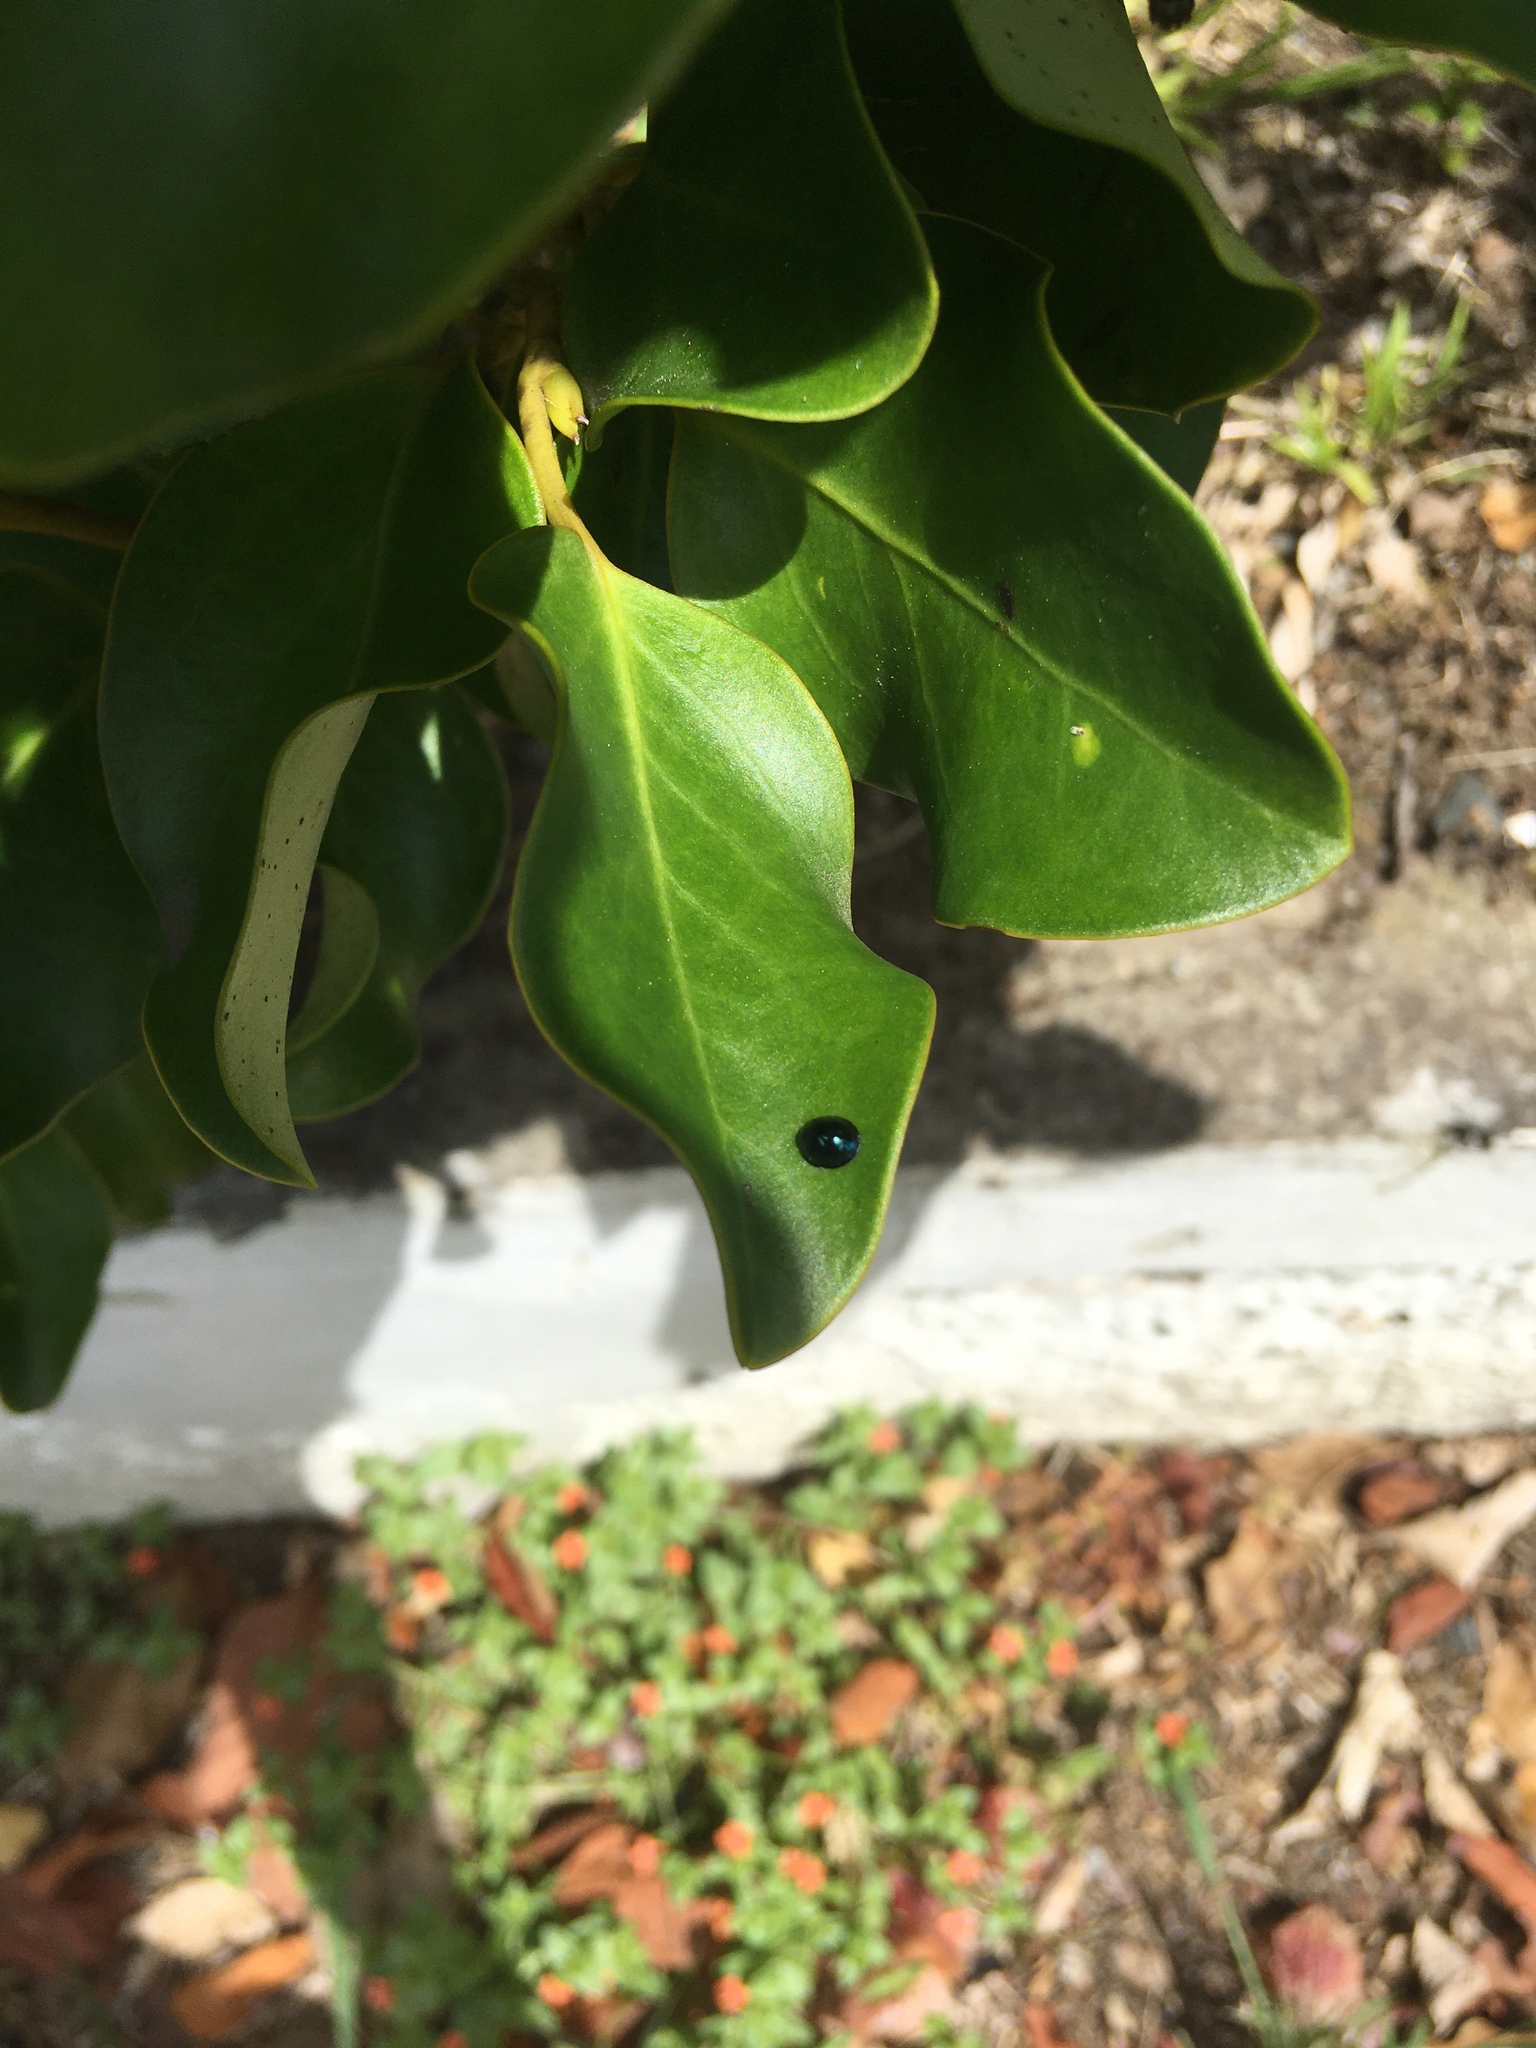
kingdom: Animalia
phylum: Arthropoda
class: Insecta
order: Coleoptera
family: Coccinellidae
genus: Halmus
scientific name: Halmus chalybeus
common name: Steel blue ladybird beetle
